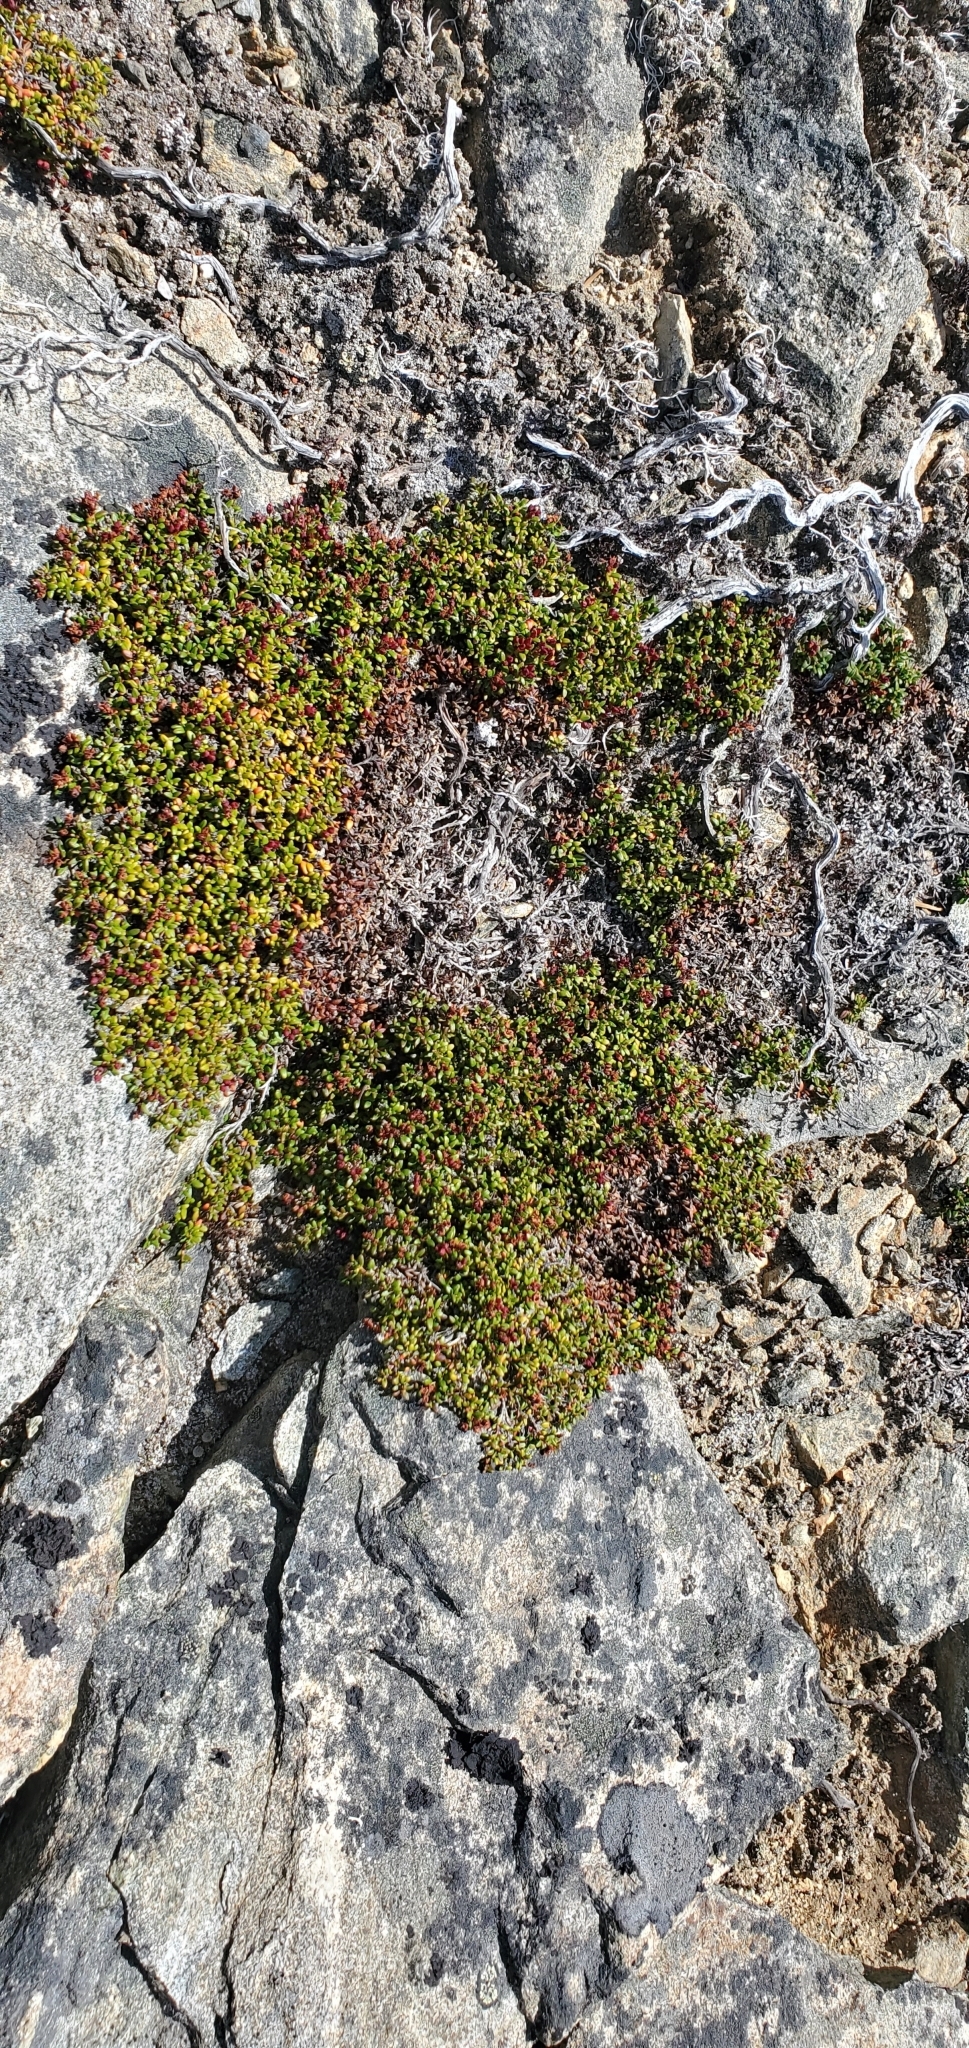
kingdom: Plantae
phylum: Tracheophyta
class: Magnoliopsida
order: Ericales
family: Ericaceae
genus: Kalmia
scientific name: Kalmia procumbens
